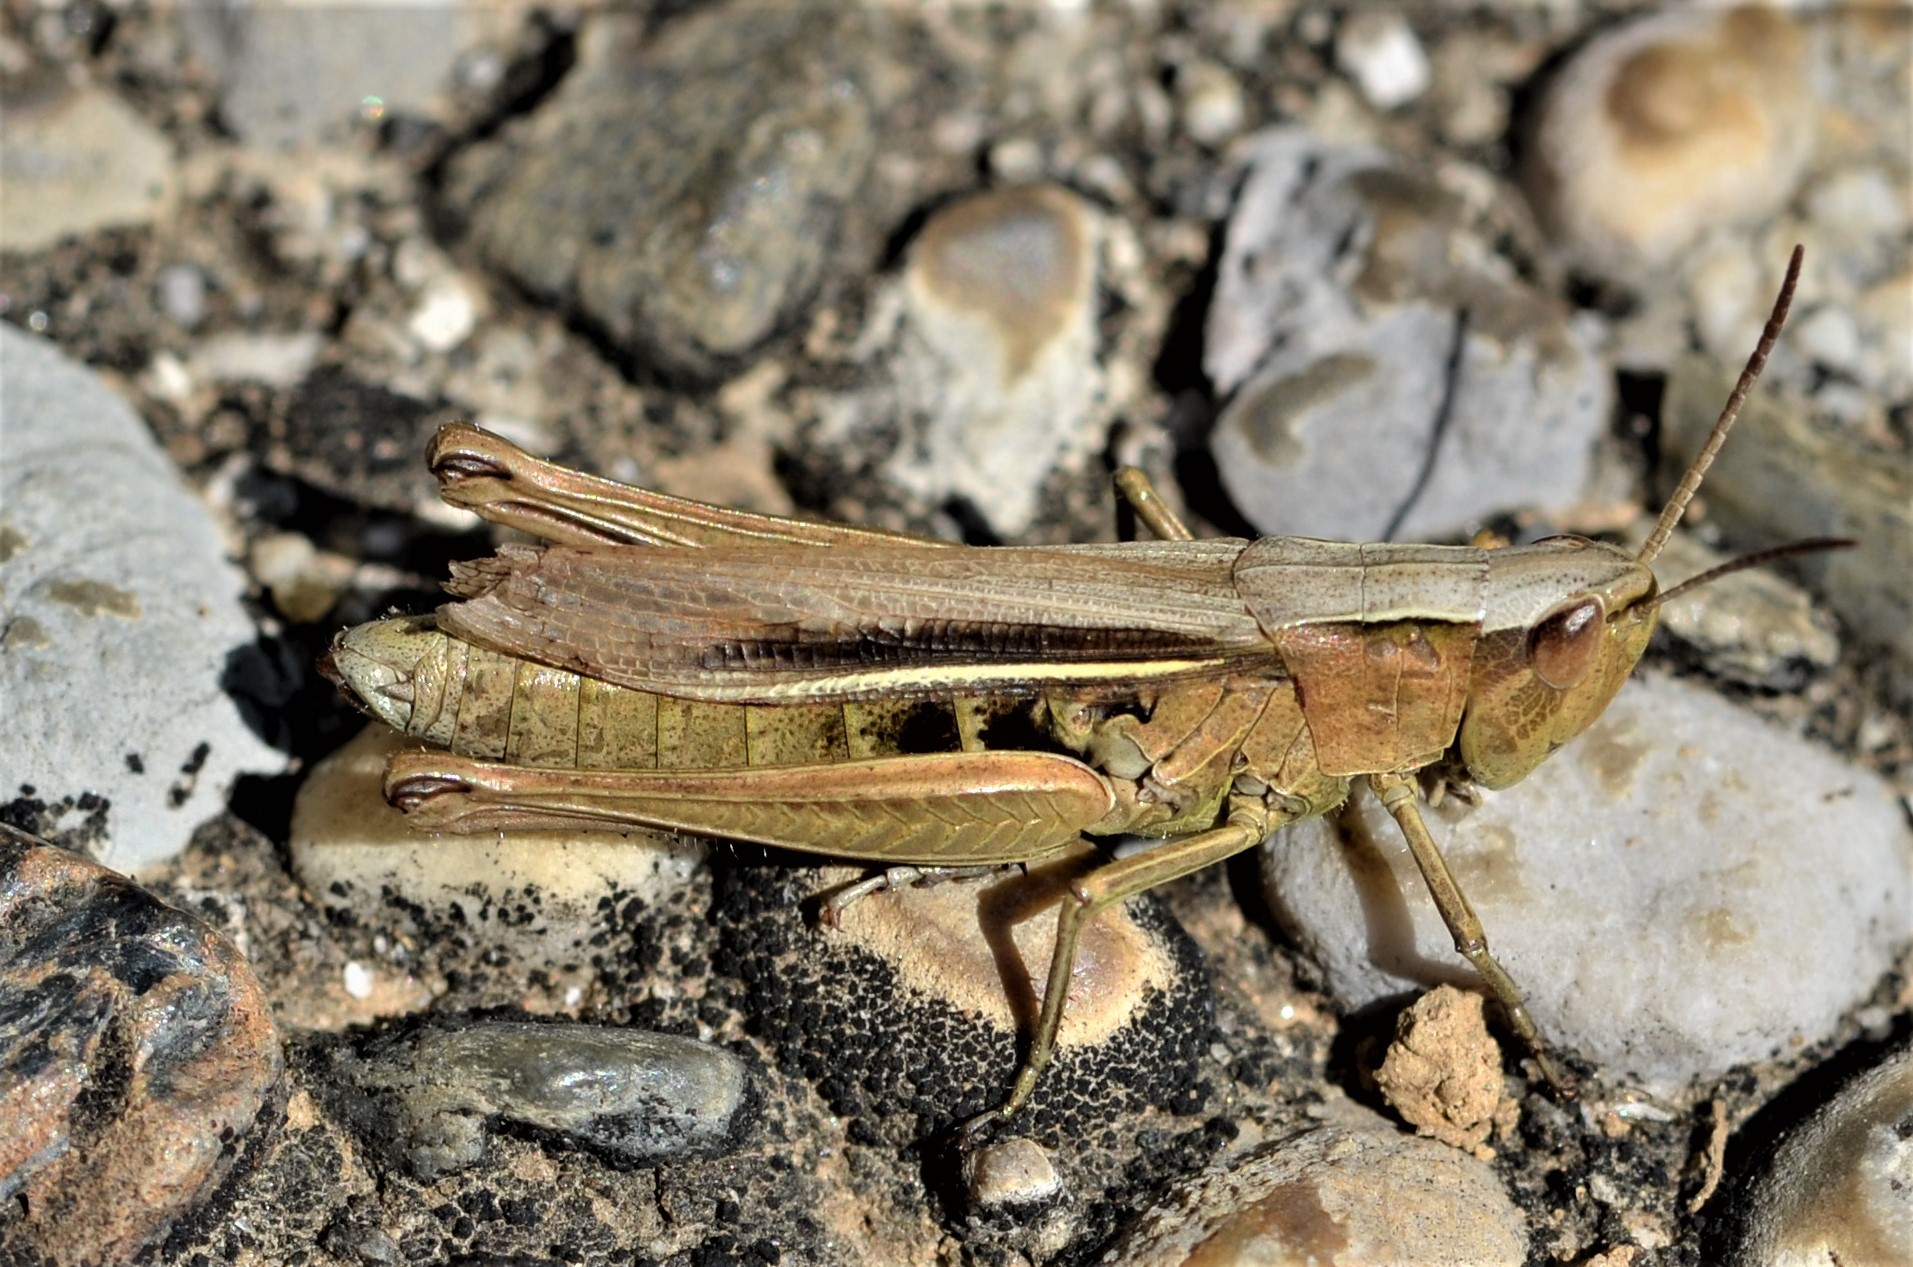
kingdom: Animalia
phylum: Arthropoda
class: Insecta
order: Orthoptera
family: Acrididae
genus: Chorthippus
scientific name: Chorthippus albomarginatus
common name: Lesser marsh grasshopper
